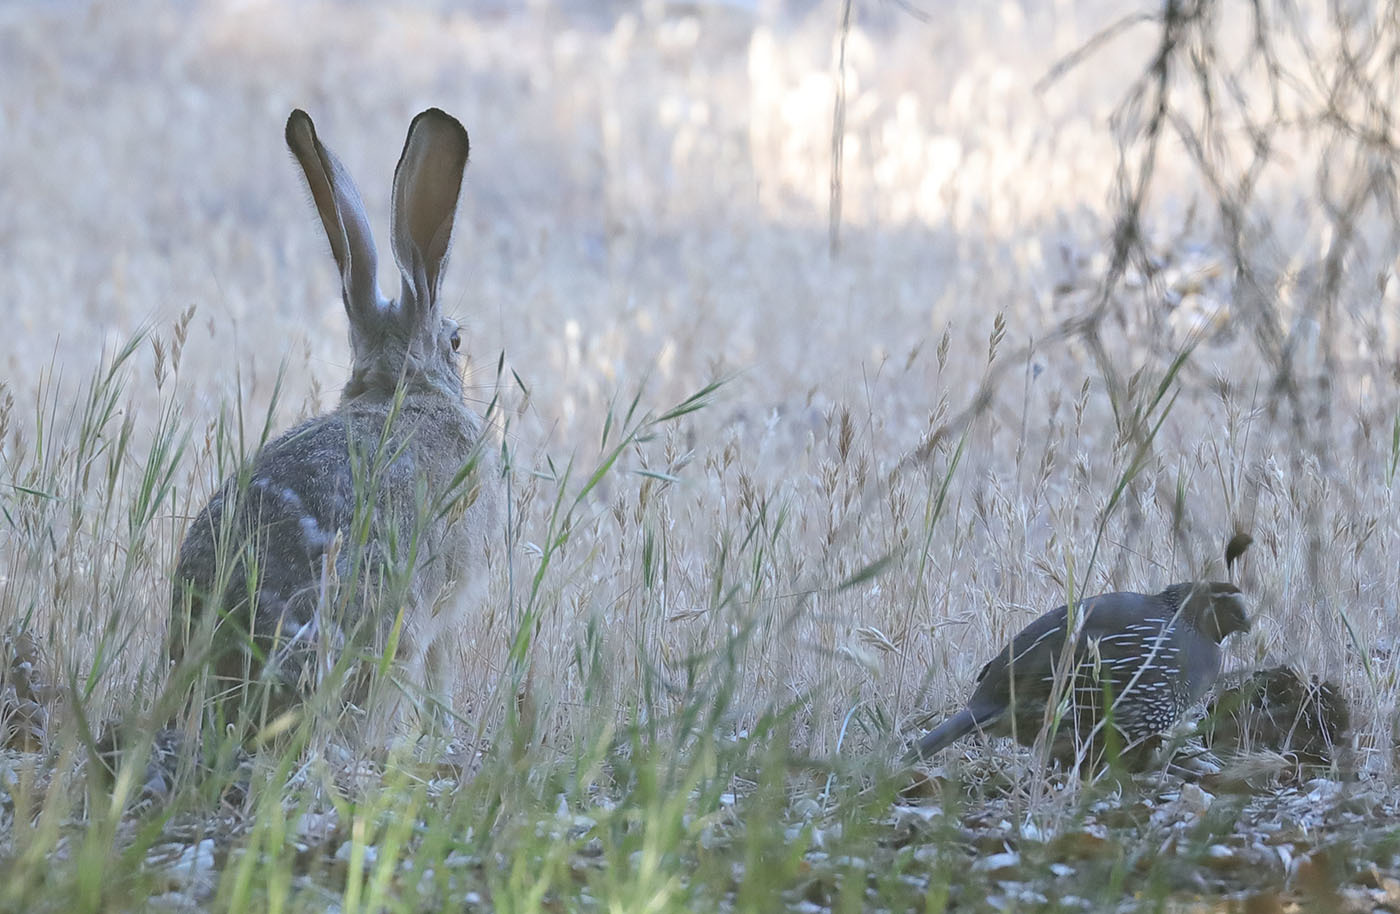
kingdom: Animalia
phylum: Chordata
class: Mammalia
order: Lagomorpha
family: Leporidae
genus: Lepus
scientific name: Lepus californicus
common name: Black-tailed jackrabbit
